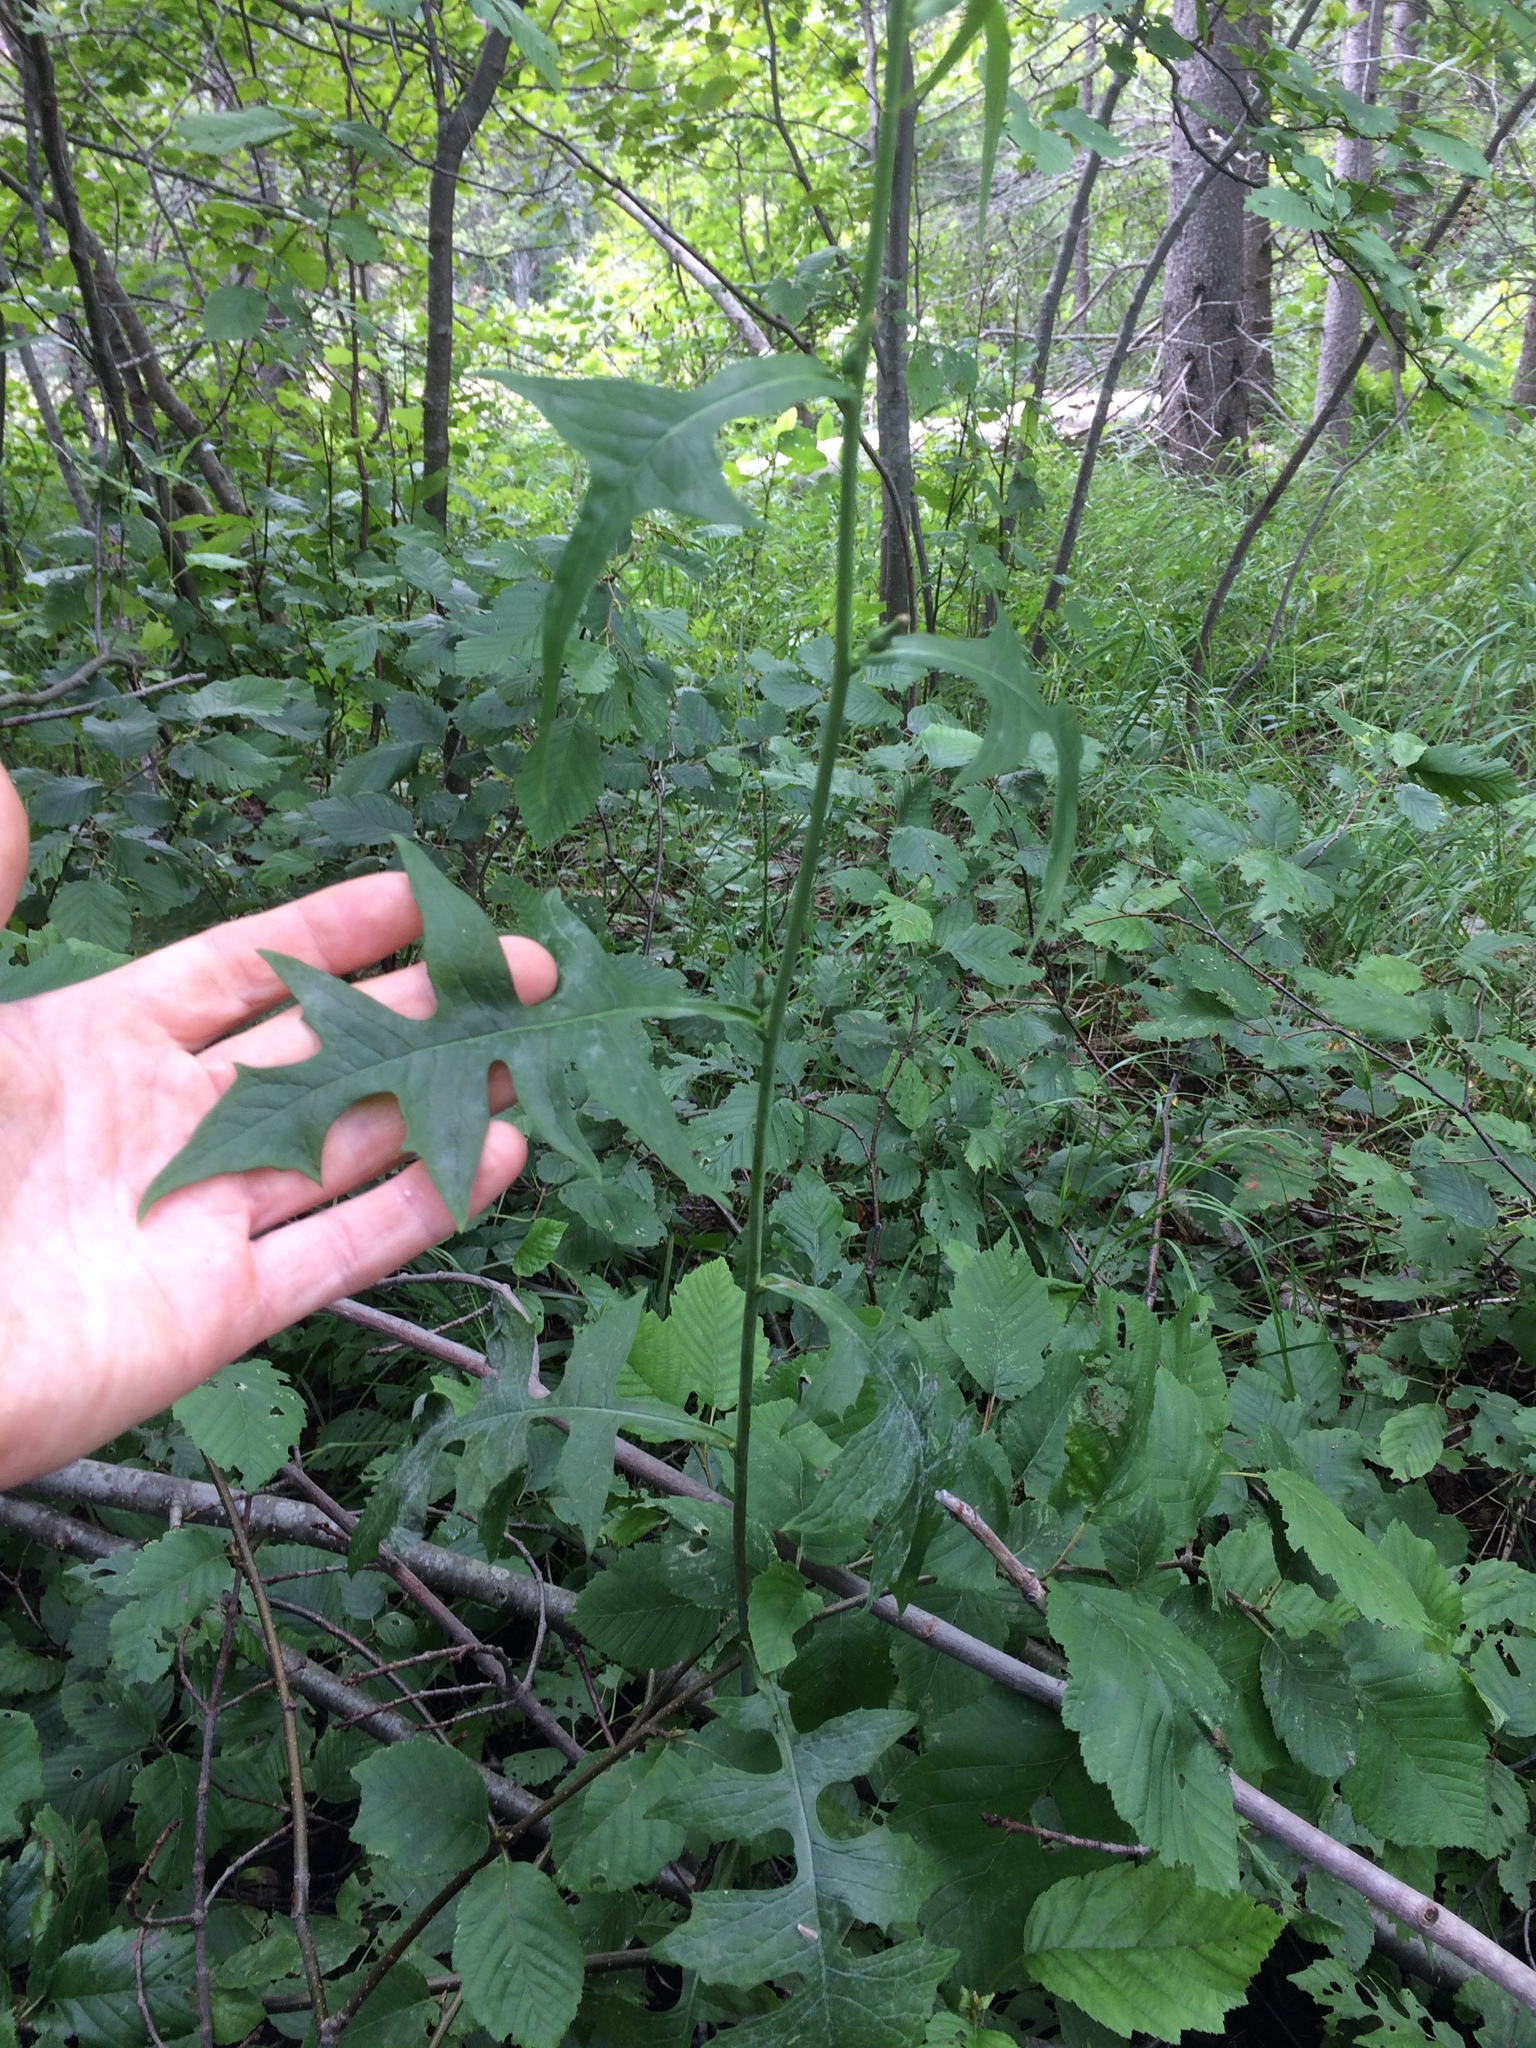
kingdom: Plantae
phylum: Tracheophyta
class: Magnoliopsida
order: Asterales
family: Asteraceae
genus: Lactuca
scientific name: Lactuca biennis
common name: Blue wood lettuce
